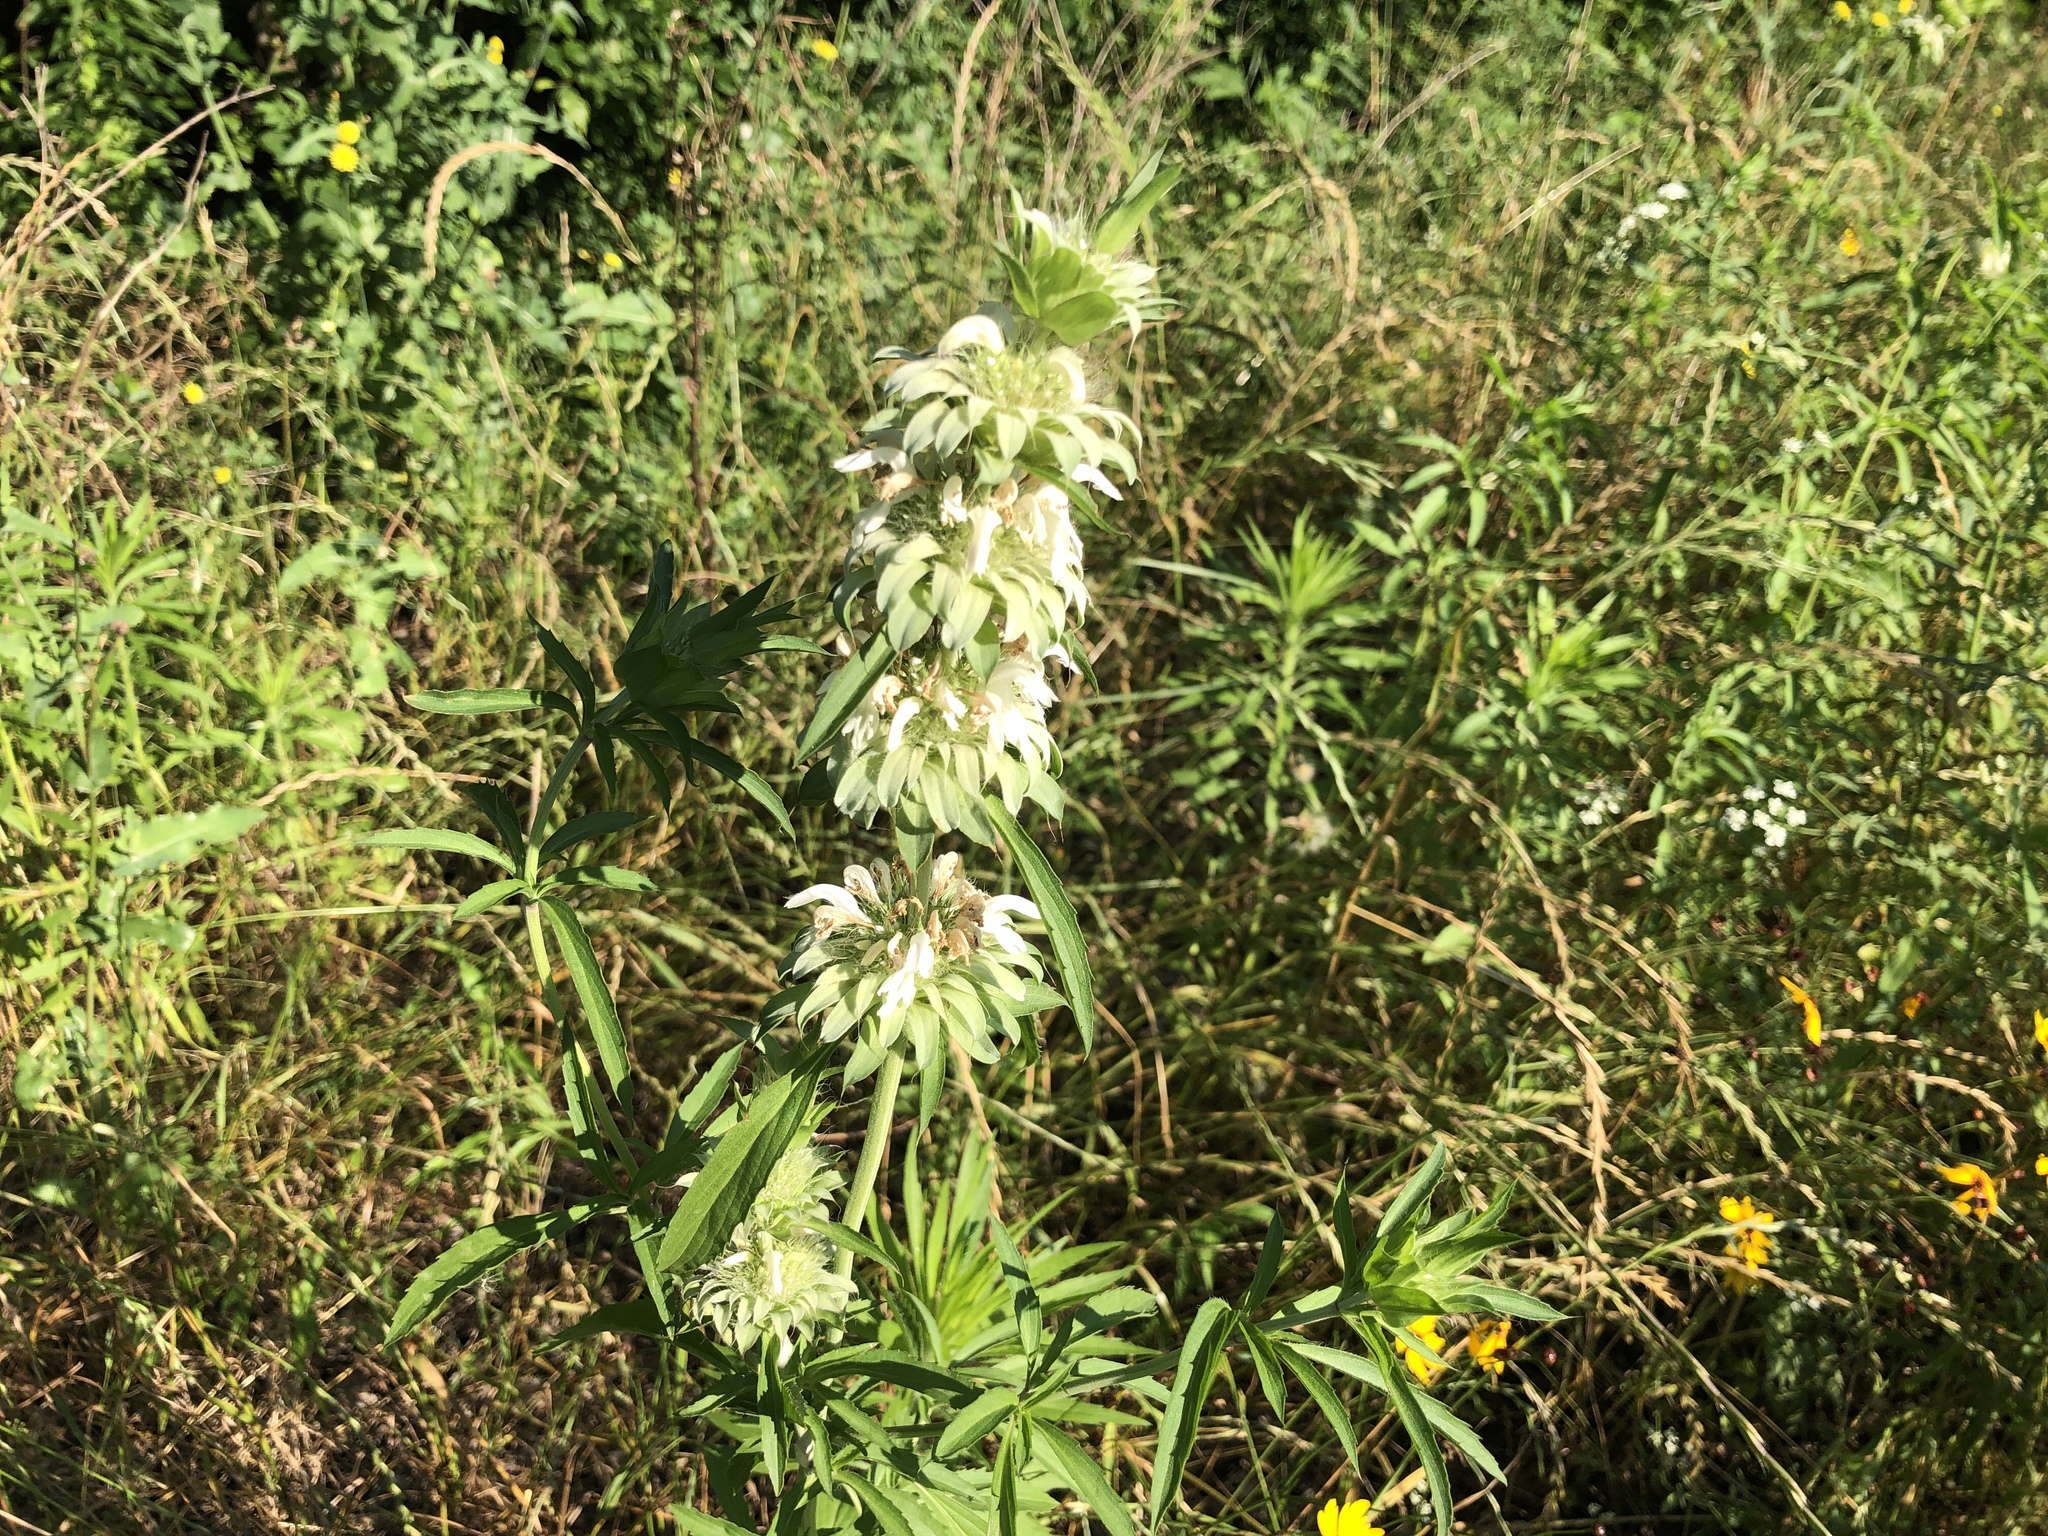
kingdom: Plantae
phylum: Tracheophyta
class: Magnoliopsida
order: Lamiales
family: Lamiaceae
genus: Monarda
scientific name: Monarda citriodora
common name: Lemon beebalm
